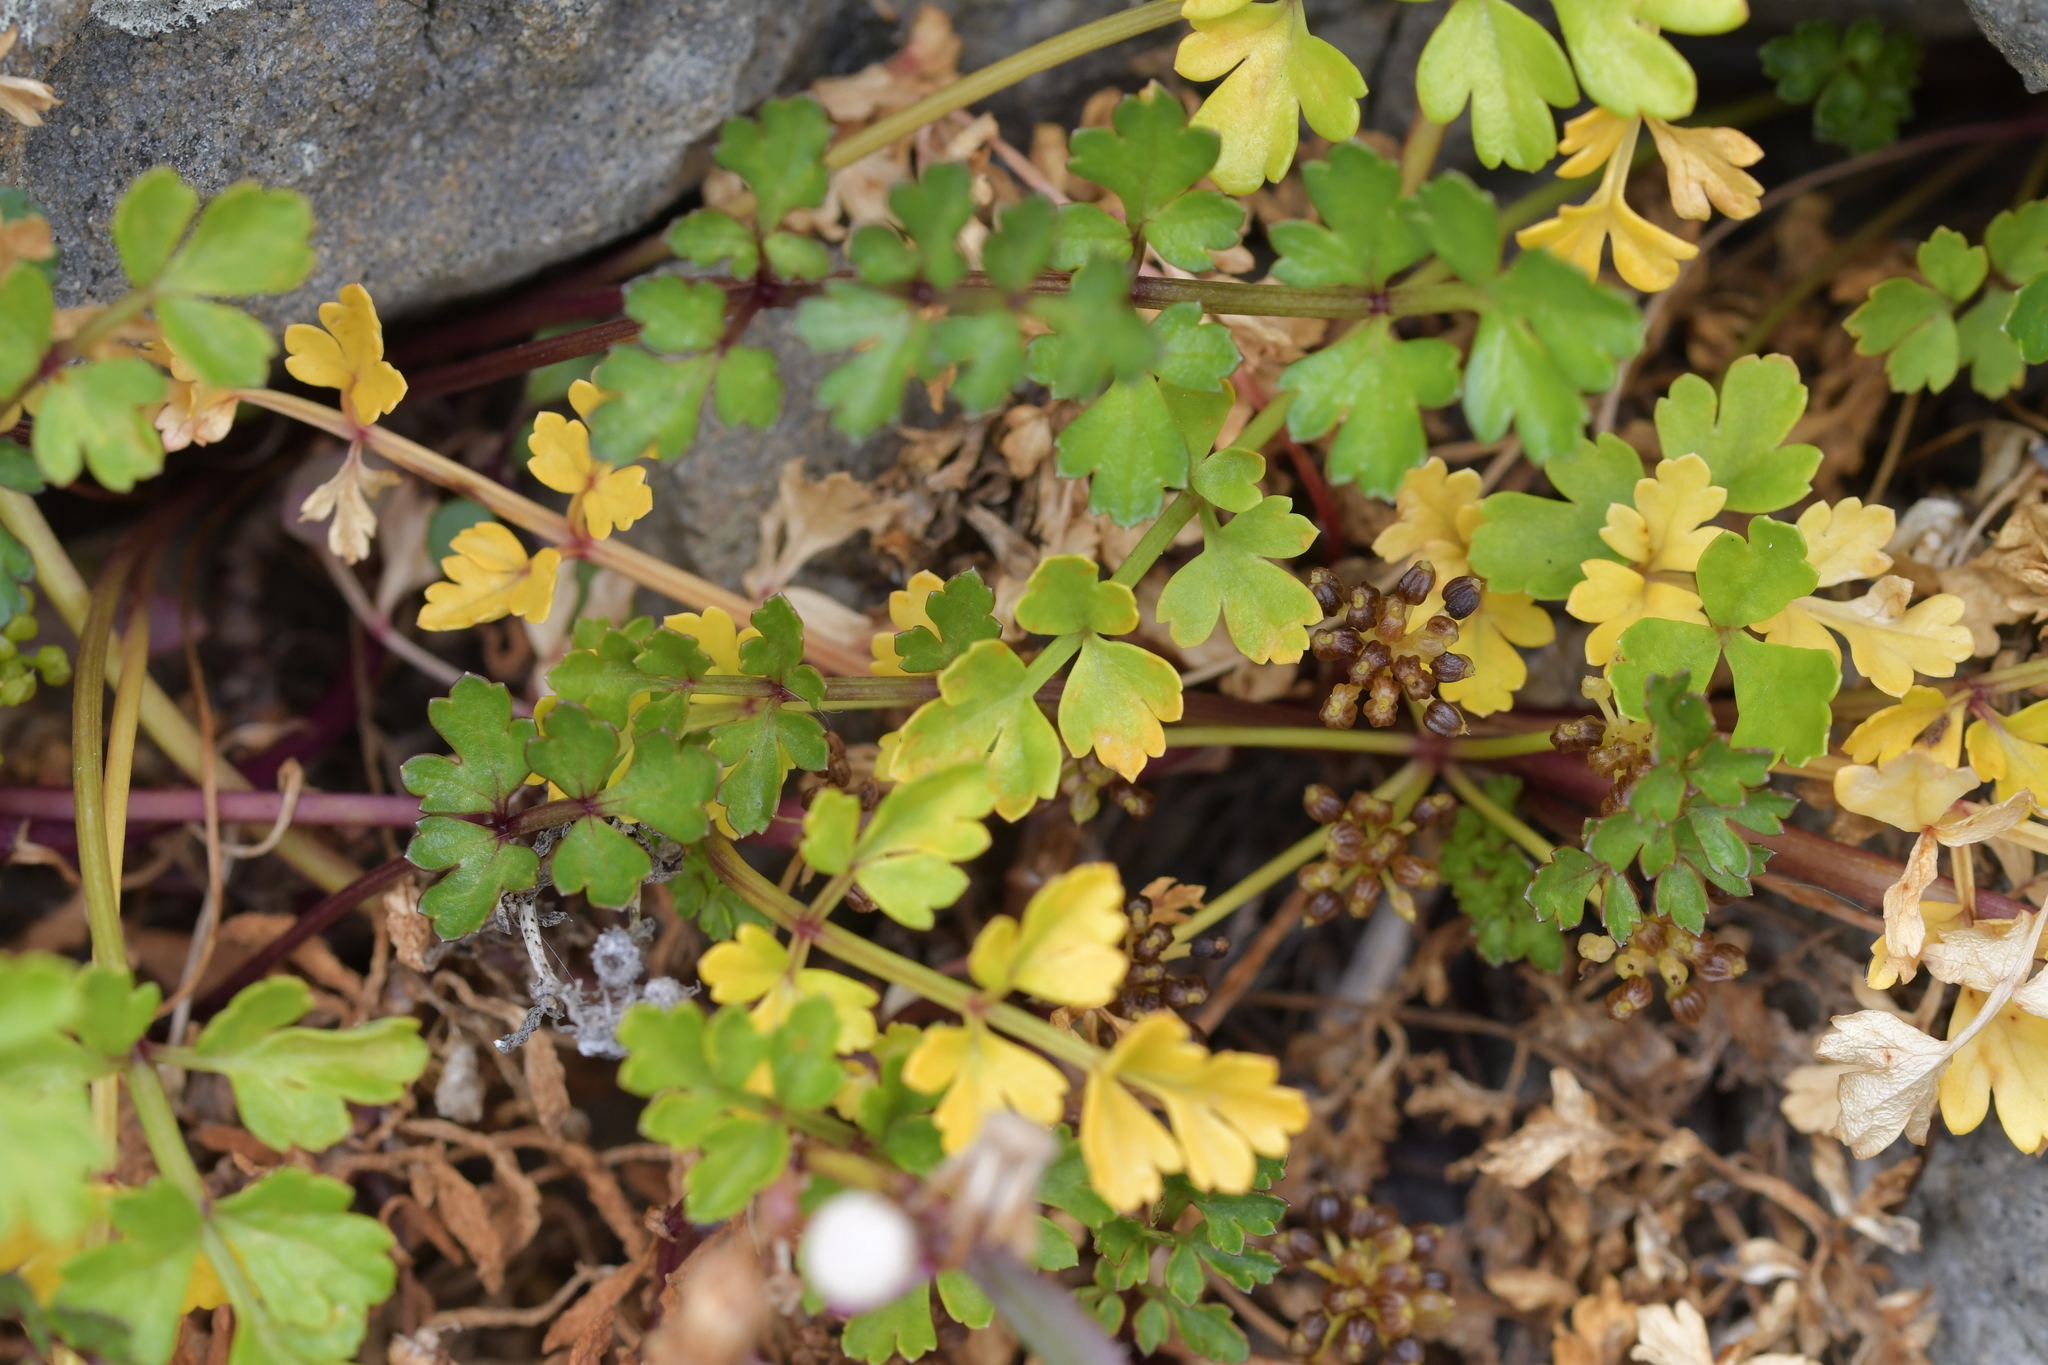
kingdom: Plantae
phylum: Tracheophyta
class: Magnoliopsida
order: Apiales
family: Apiaceae
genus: Apium
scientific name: Apium prostratum
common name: Prostrate marshwort
